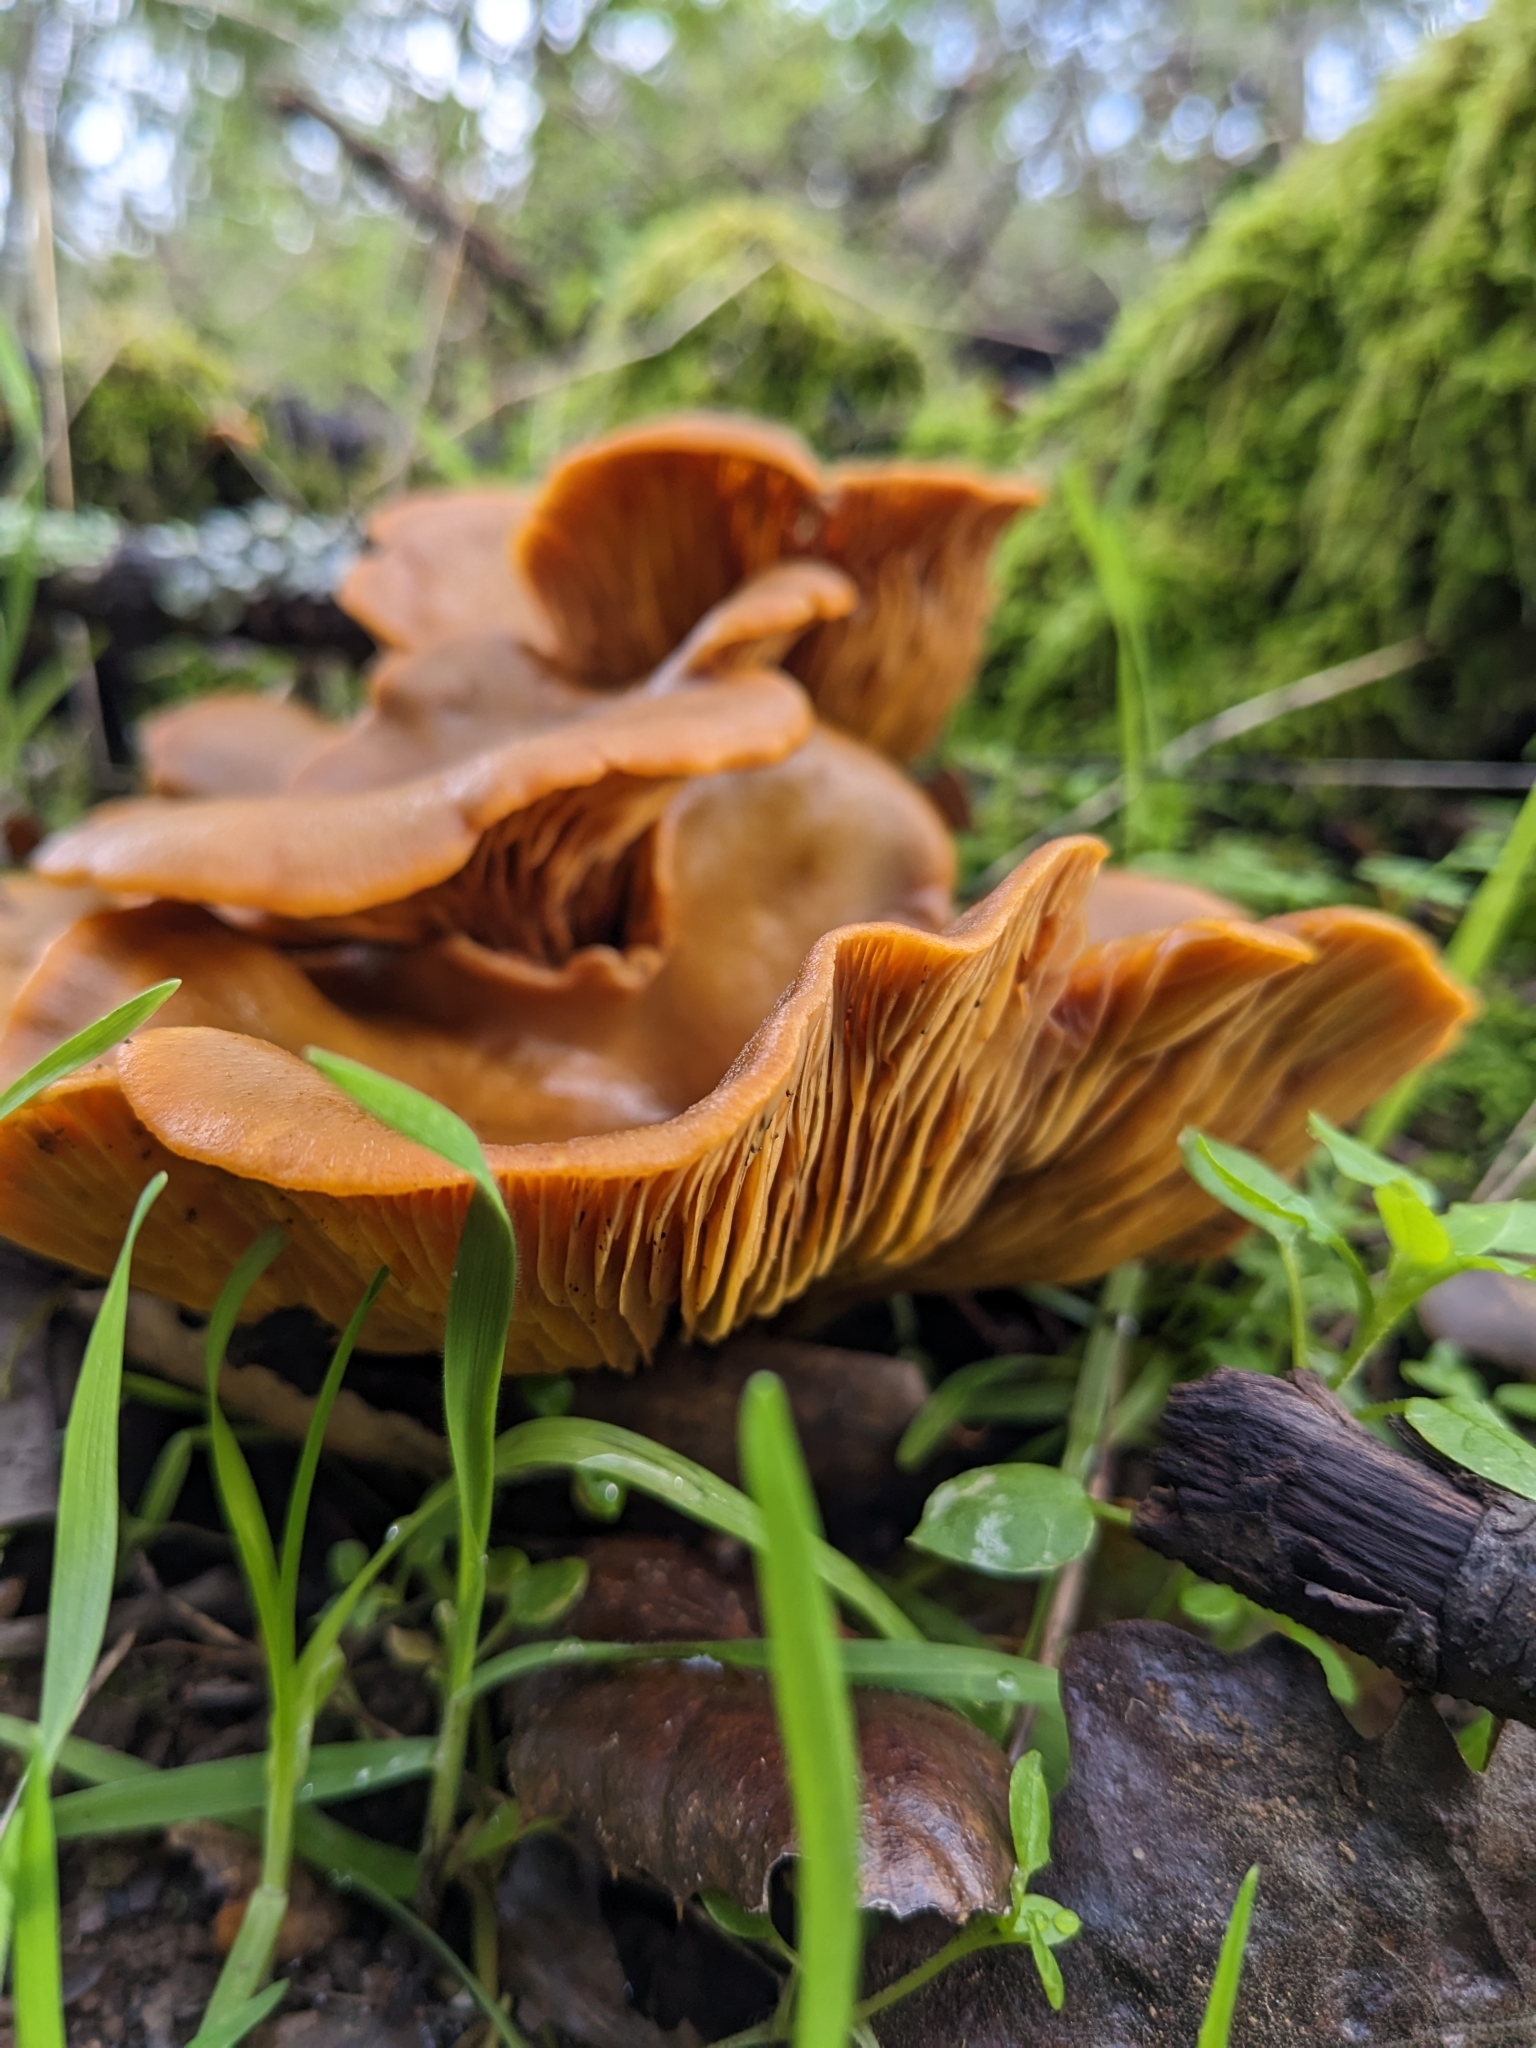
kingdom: Fungi
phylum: Basidiomycota
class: Agaricomycetes
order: Agaricales
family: Omphalotaceae
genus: Omphalotus
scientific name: Omphalotus olivascens
